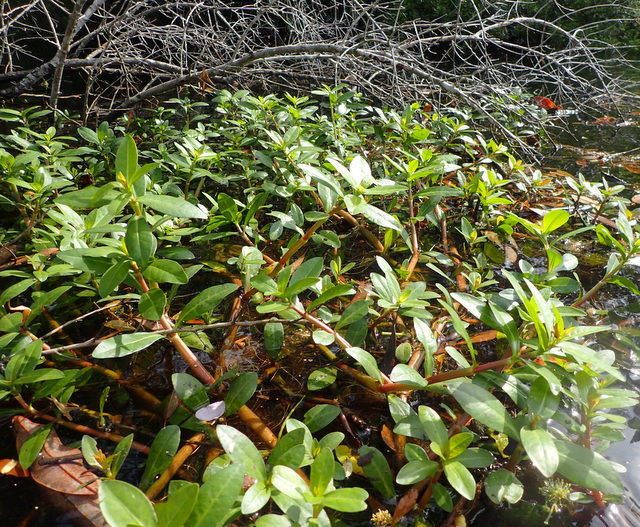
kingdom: Plantae
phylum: Tracheophyta
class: Magnoliopsida
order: Caryophyllales
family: Amaranthaceae
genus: Alternanthera
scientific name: Alternanthera philoxeroides
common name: Alligatorweed
